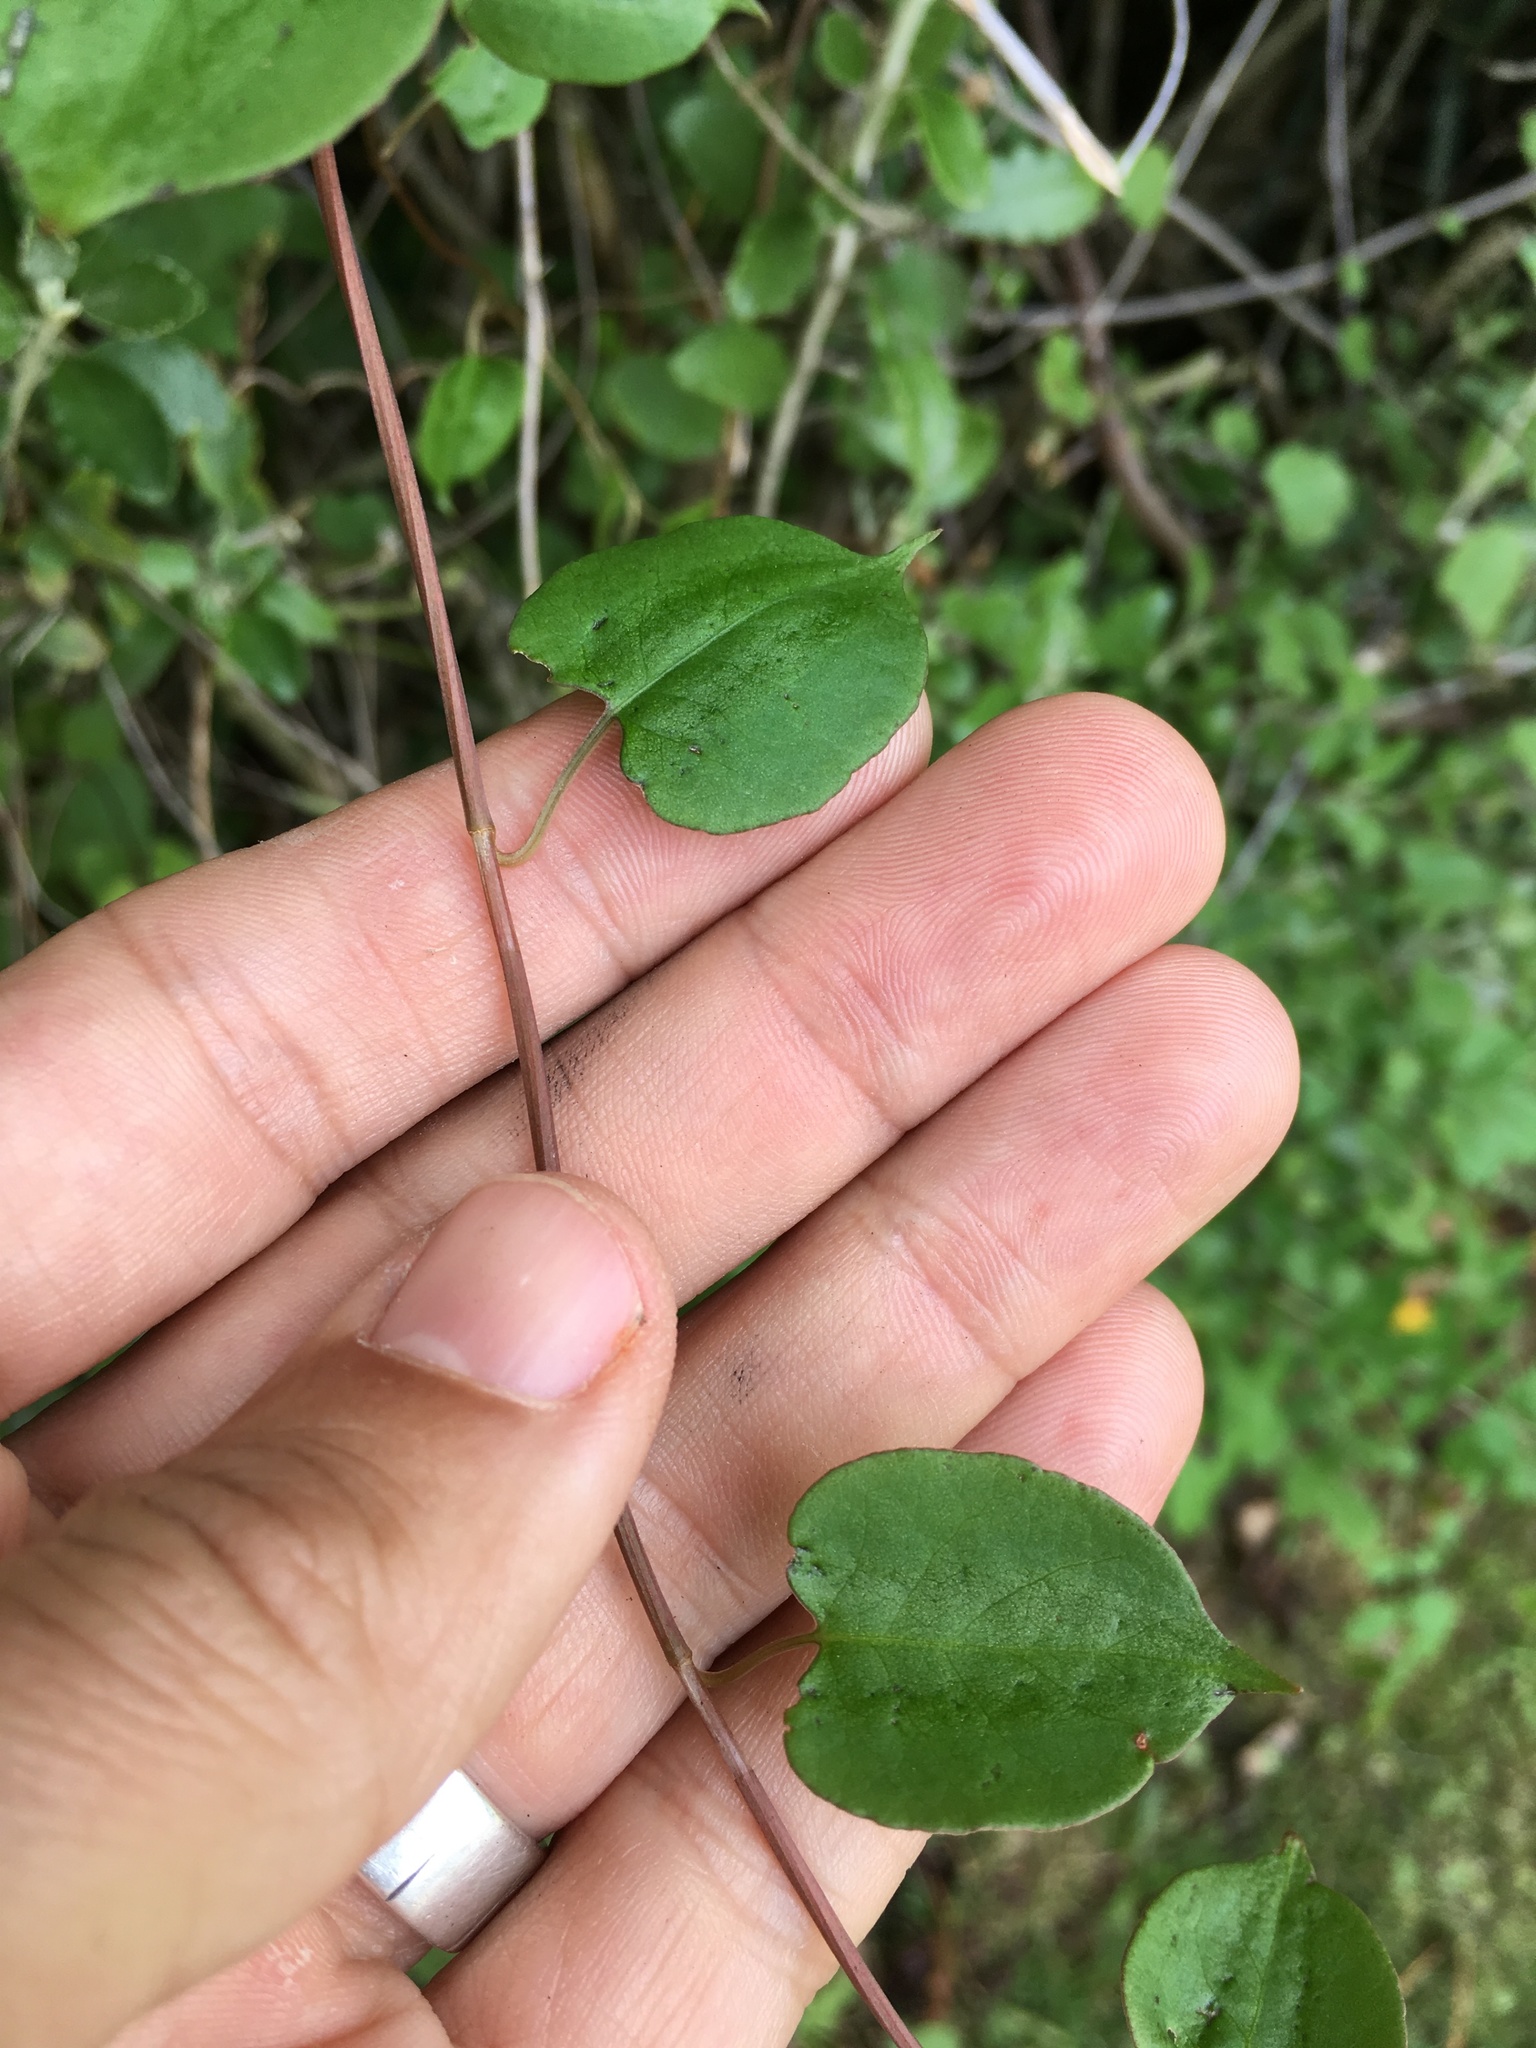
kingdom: Plantae
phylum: Tracheophyta
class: Magnoliopsida
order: Caryophyllales
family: Polygonaceae
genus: Muehlenbeckia
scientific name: Muehlenbeckia australis
